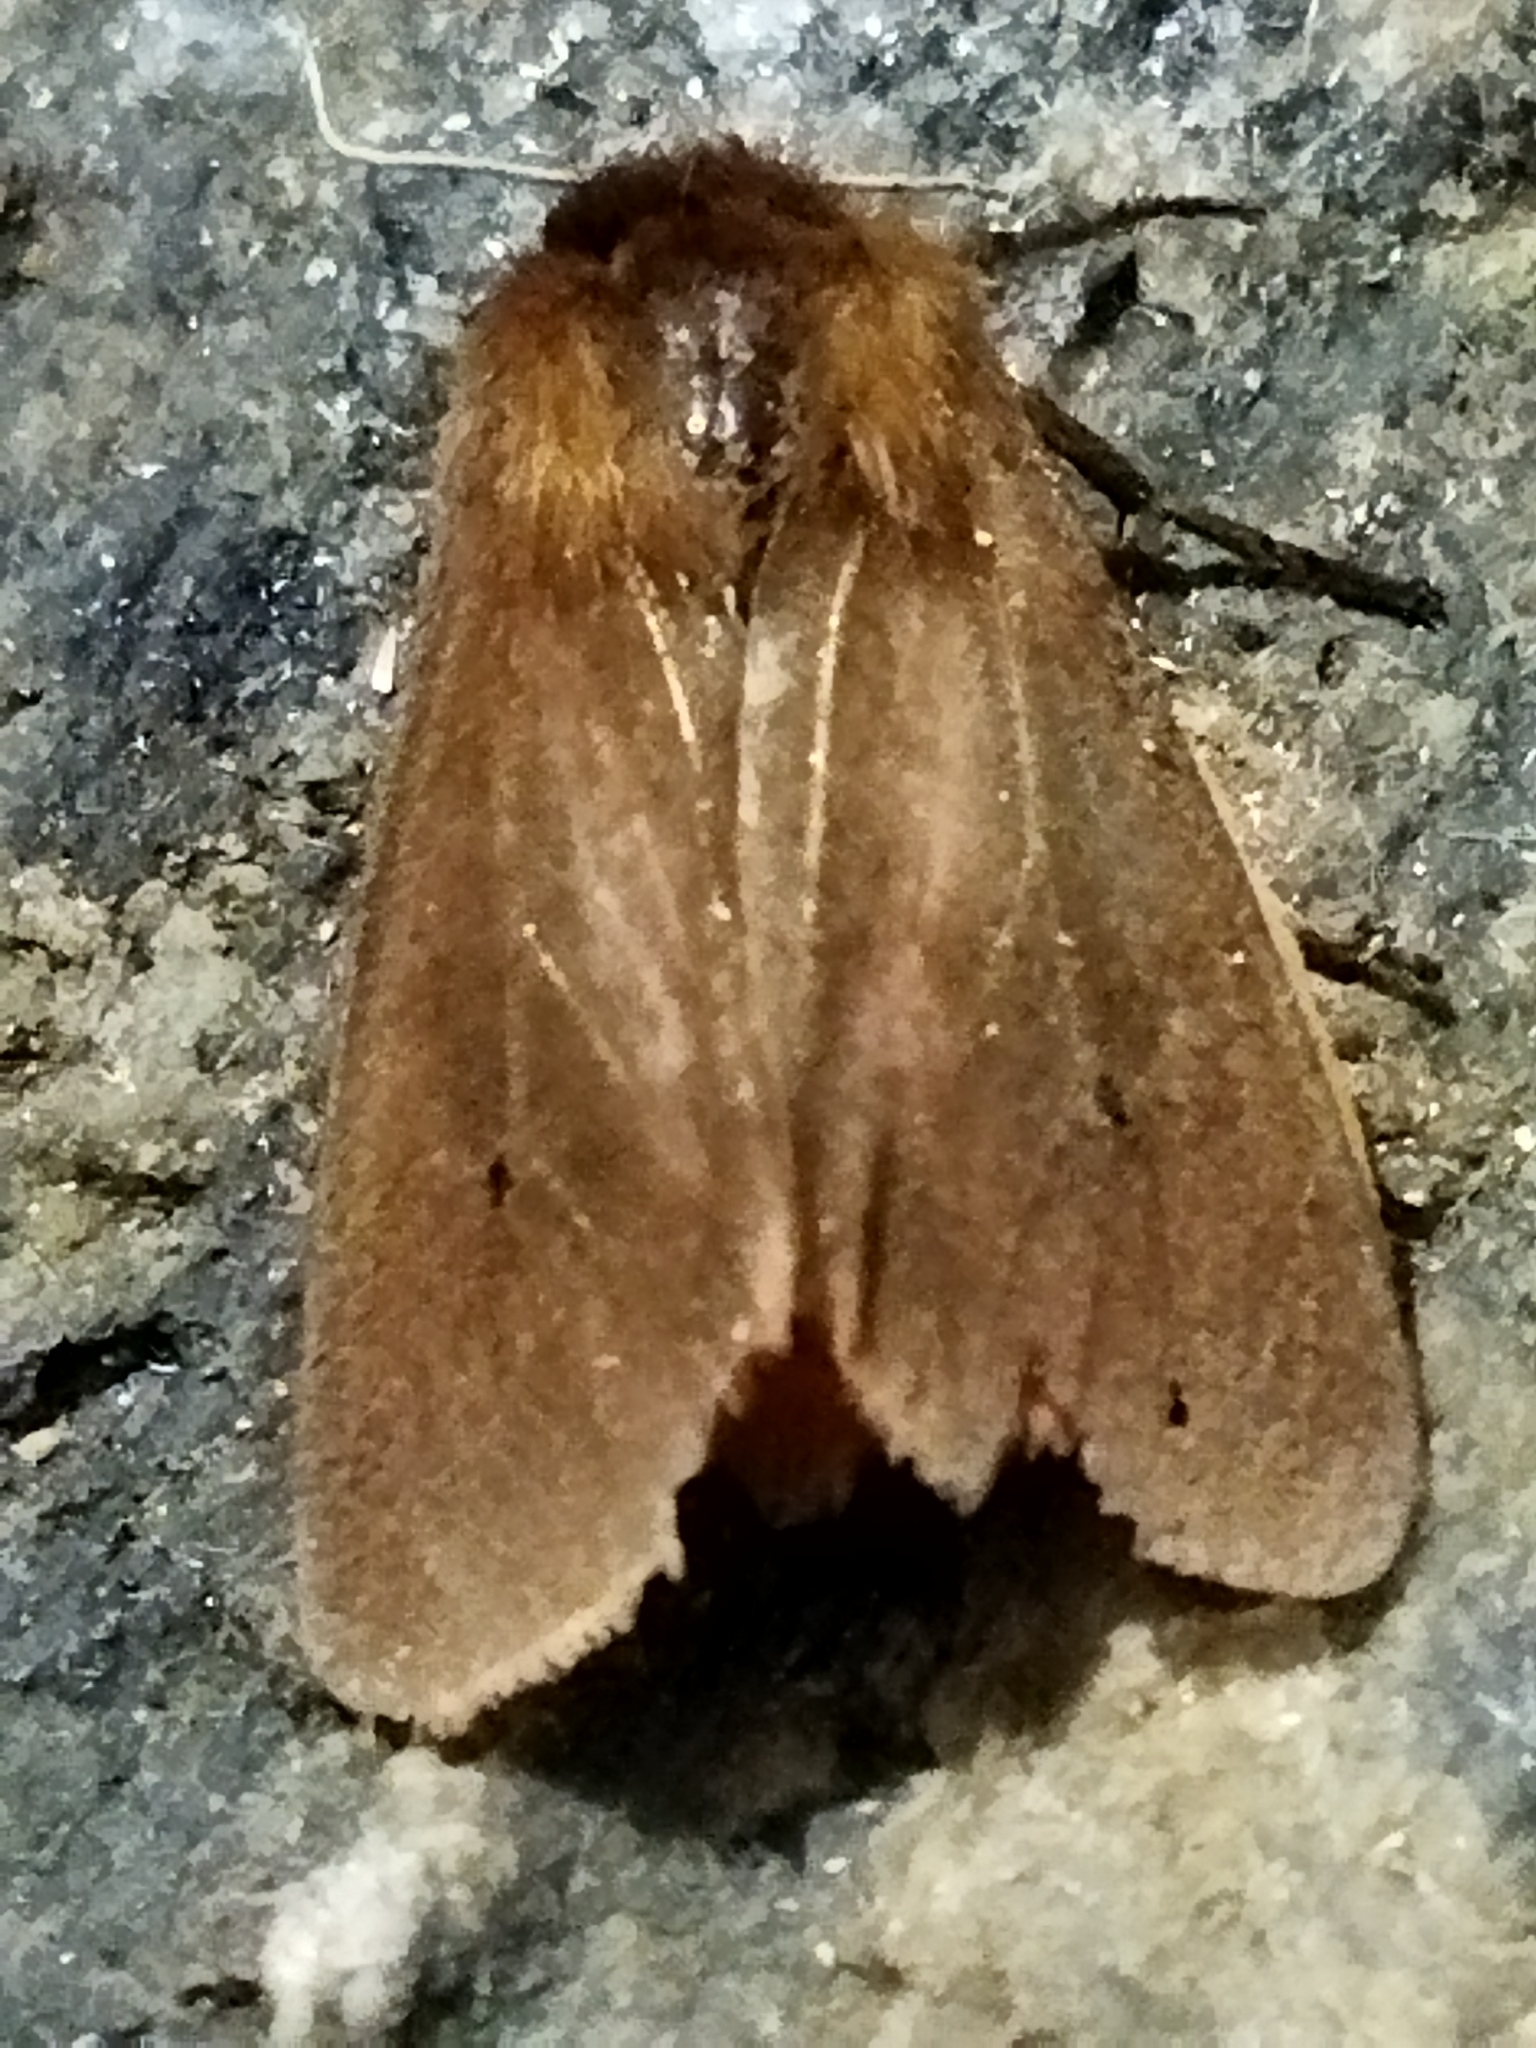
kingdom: Animalia
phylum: Arthropoda
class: Insecta
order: Lepidoptera
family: Erebidae
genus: Phragmatobia
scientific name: Phragmatobia fuliginosa
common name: Ruby tiger
